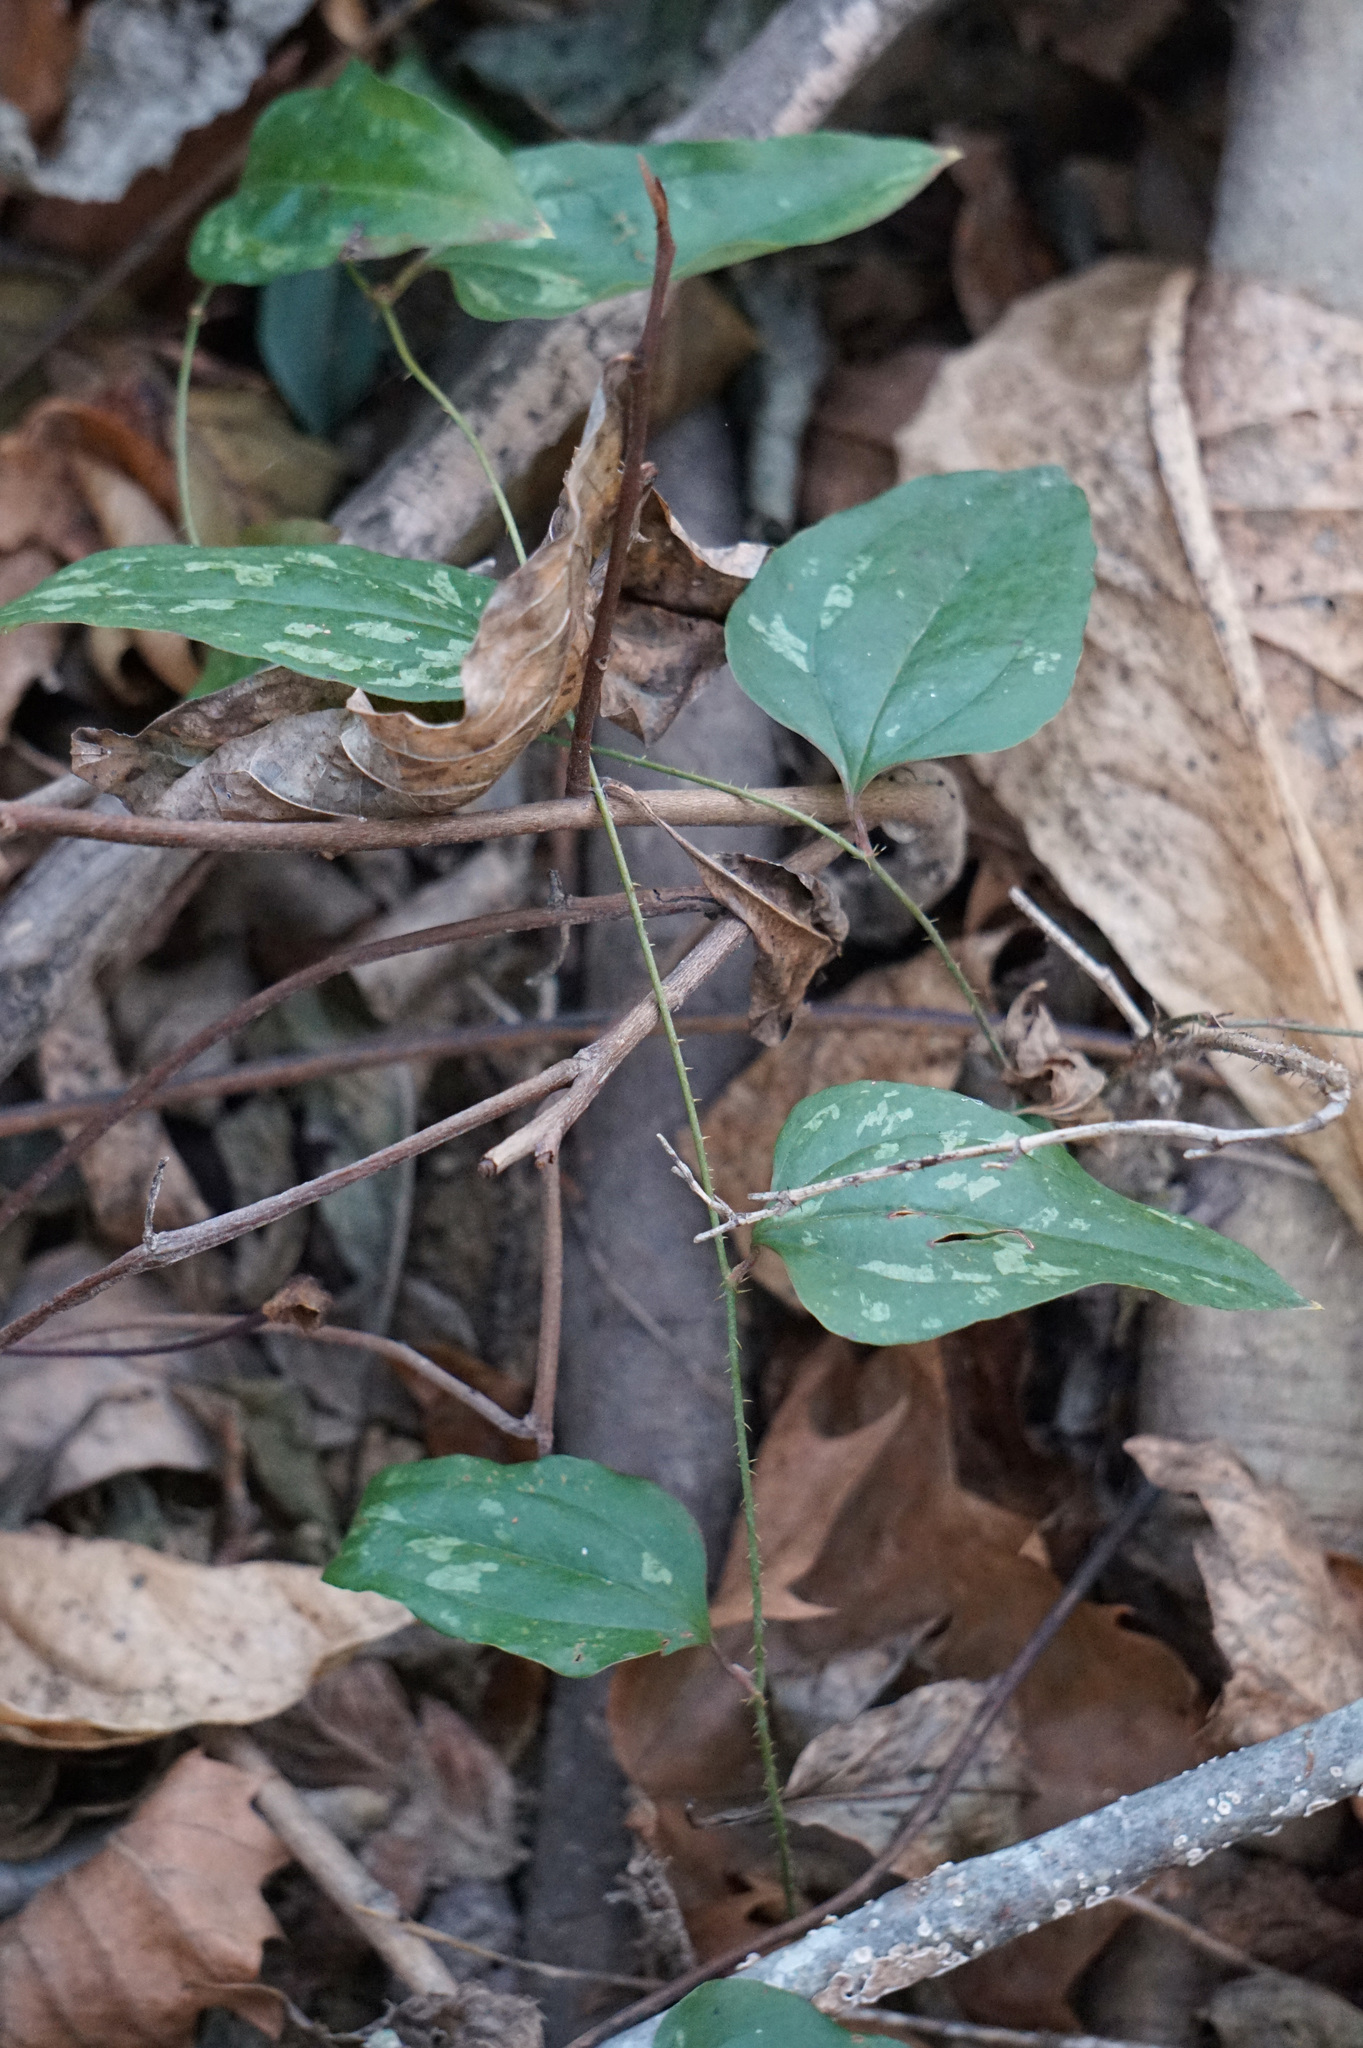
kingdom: Plantae
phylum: Tracheophyta
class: Liliopsida
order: Liliales
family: Smilacaceae
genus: Smilax
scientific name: Smilax glauca
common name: Cat greenbrier
